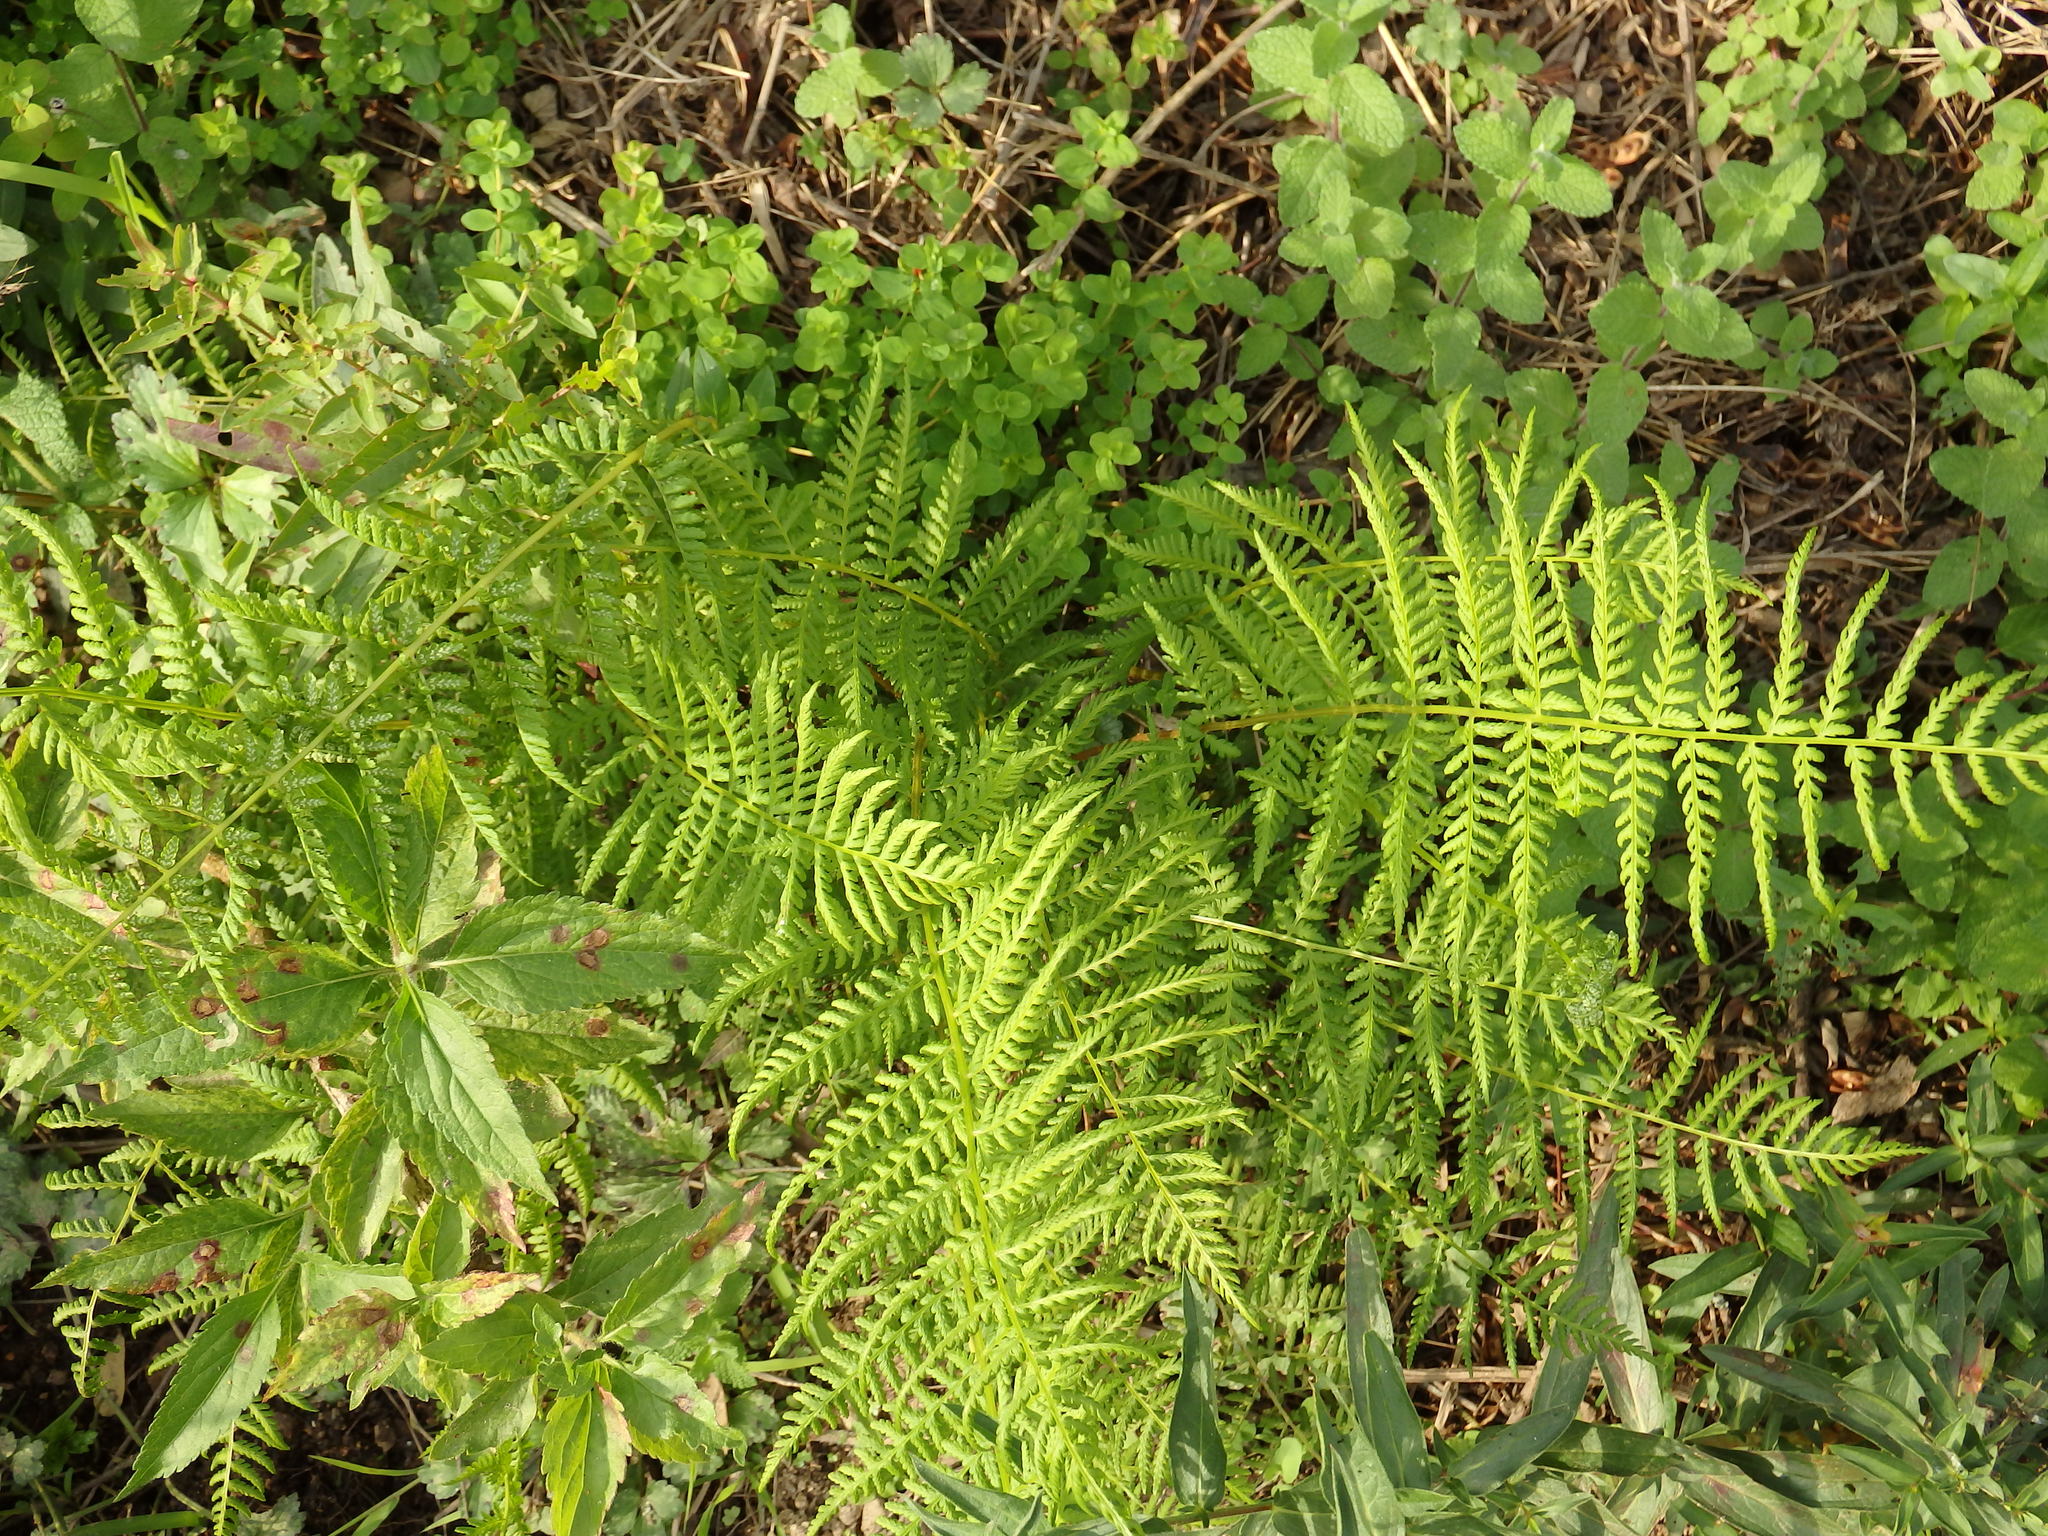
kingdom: Plantae
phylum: Tracheophyta
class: Polypodiopsida
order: Polypodiales
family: Athyriaceae
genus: Athyrium
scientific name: Athyrium filix-femina
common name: Lady fern
